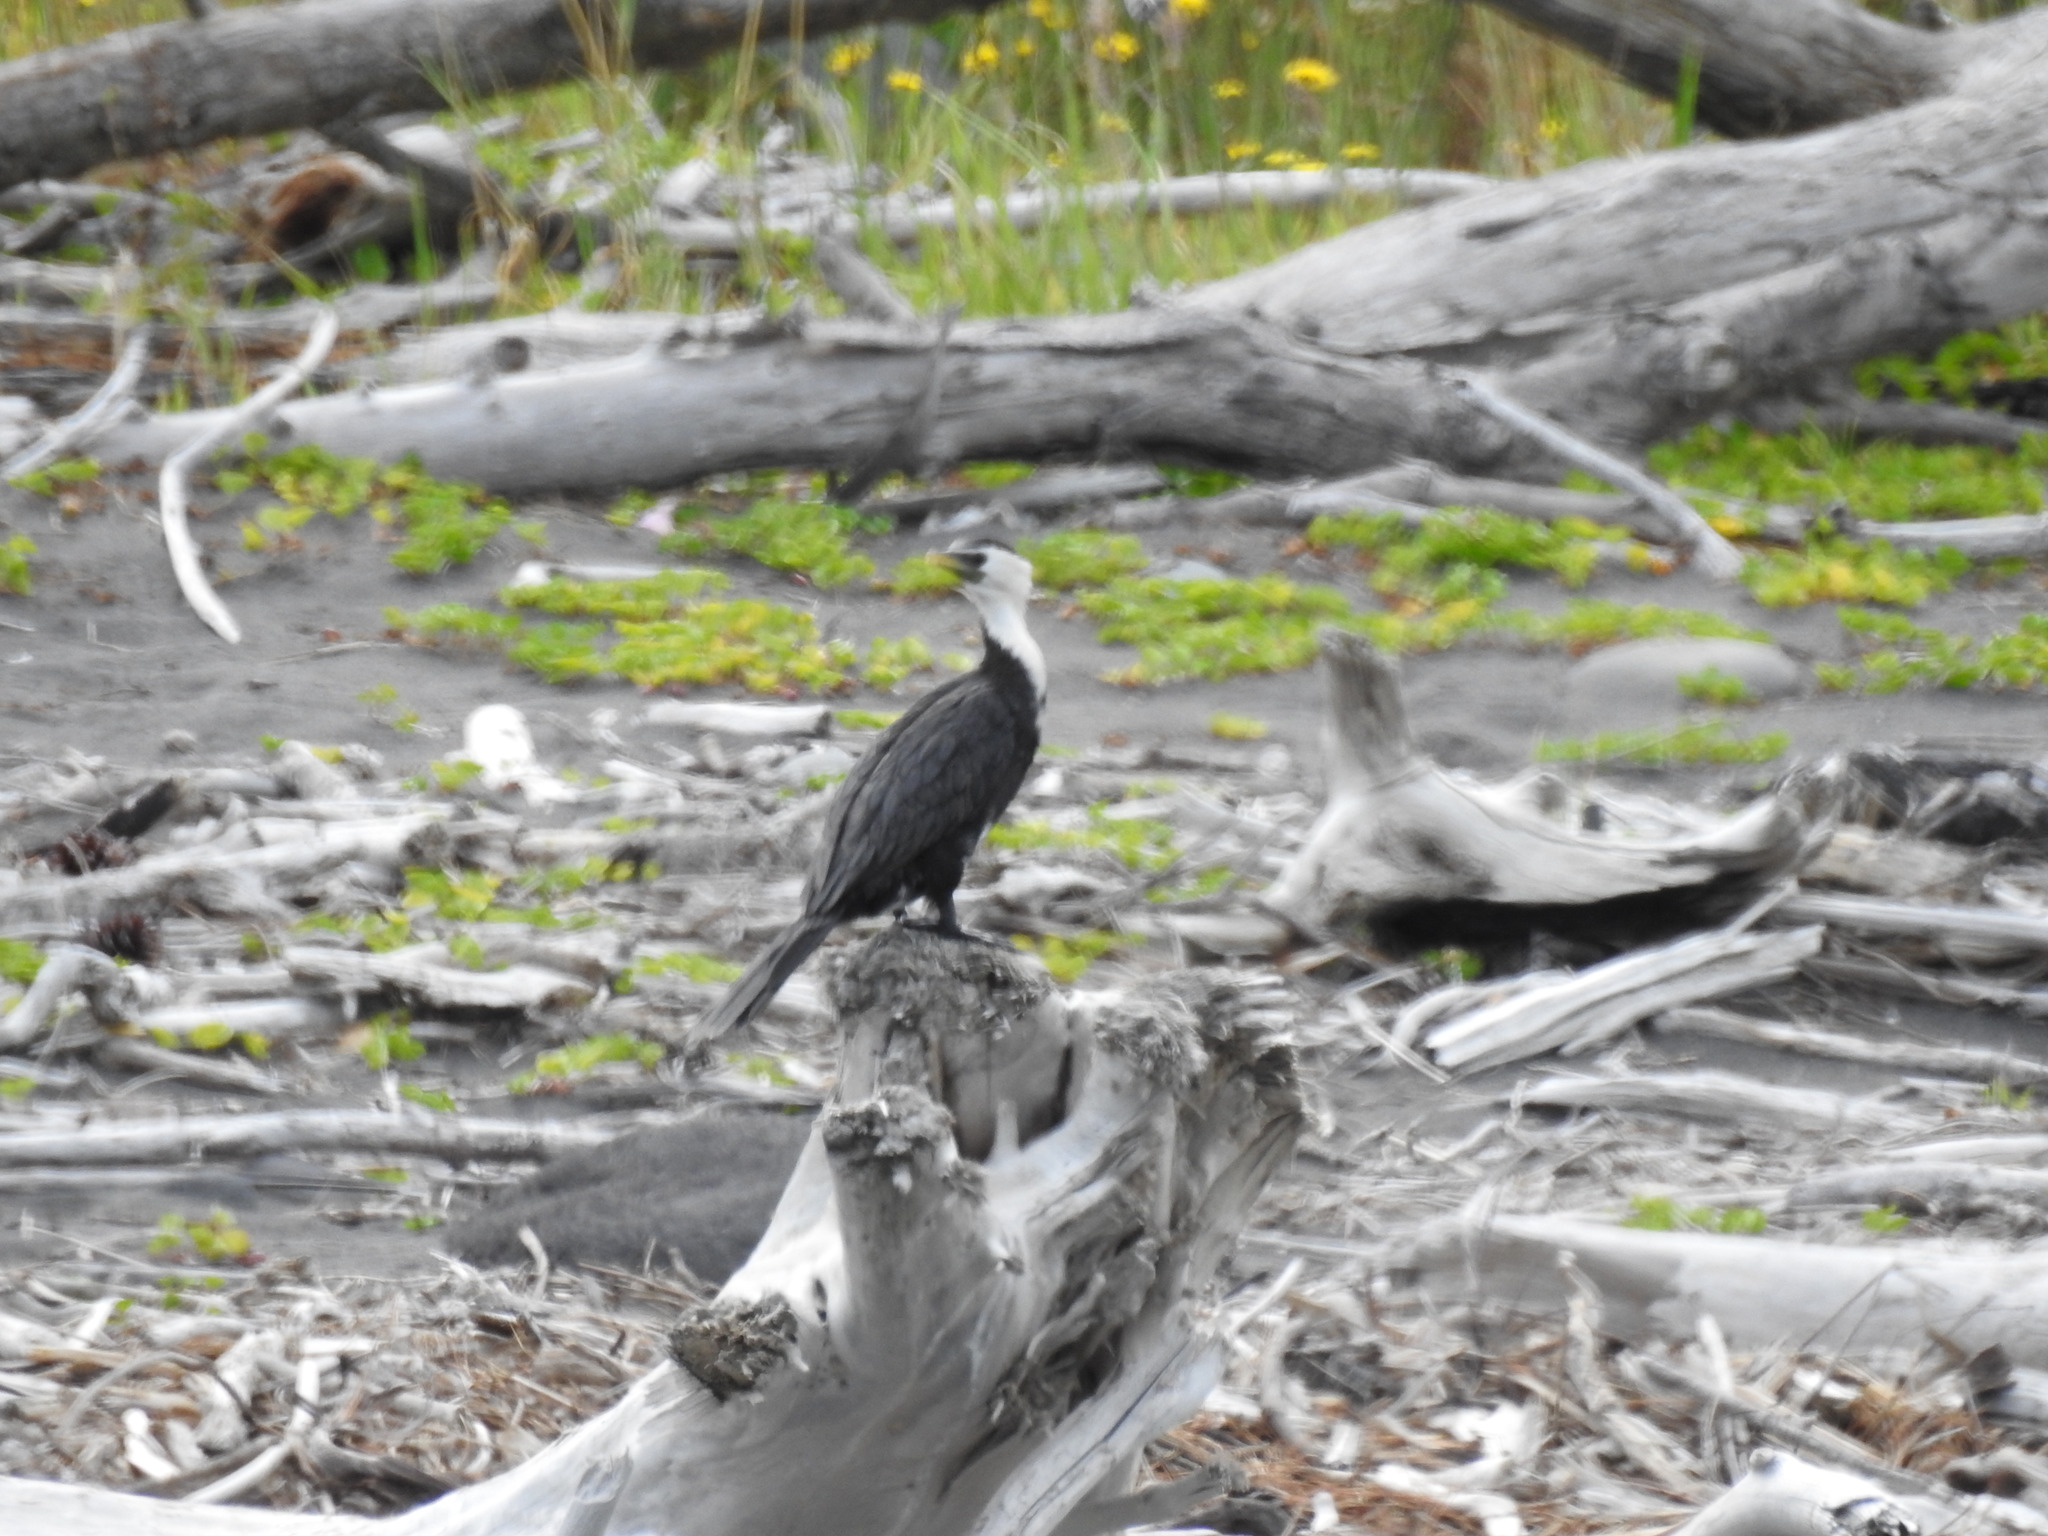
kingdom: Animalia
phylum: Chordata
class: Aves
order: Suliformes
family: Phalacrocoracidae
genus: Microcarbo
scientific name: Microcarbo melanoleucos
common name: Little pied cormorant
